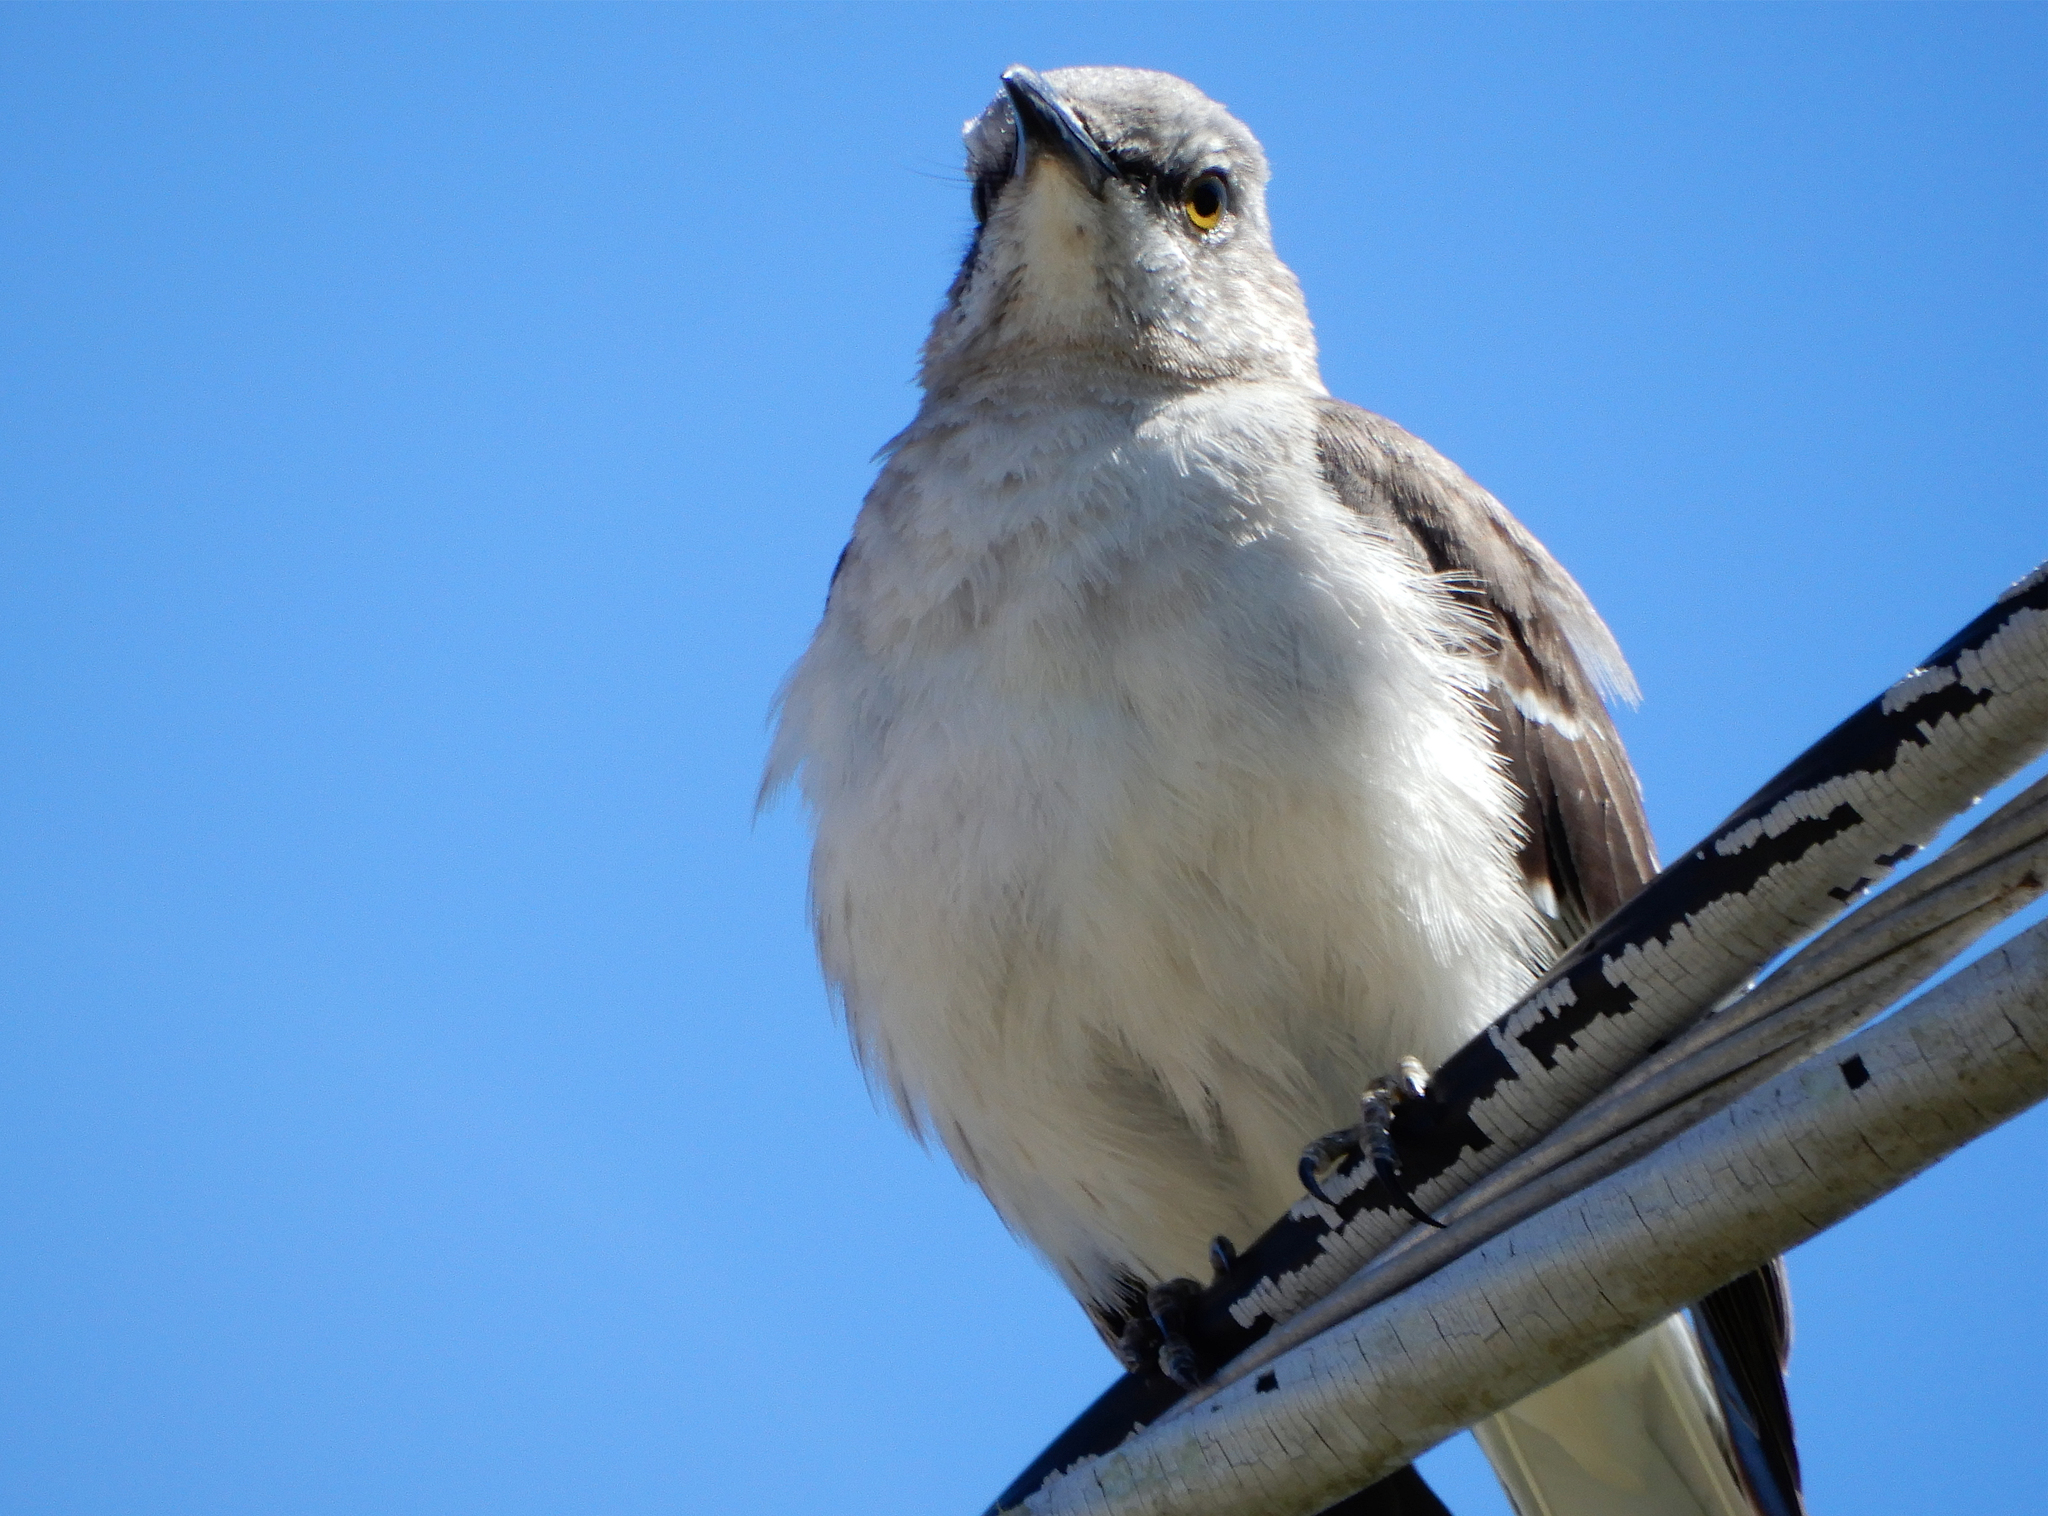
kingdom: Animalia
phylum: Chordata
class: Aves
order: Passeriformes
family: Mimidae
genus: Mimus
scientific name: Mimus polyglottos
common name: Northern mockingbird
